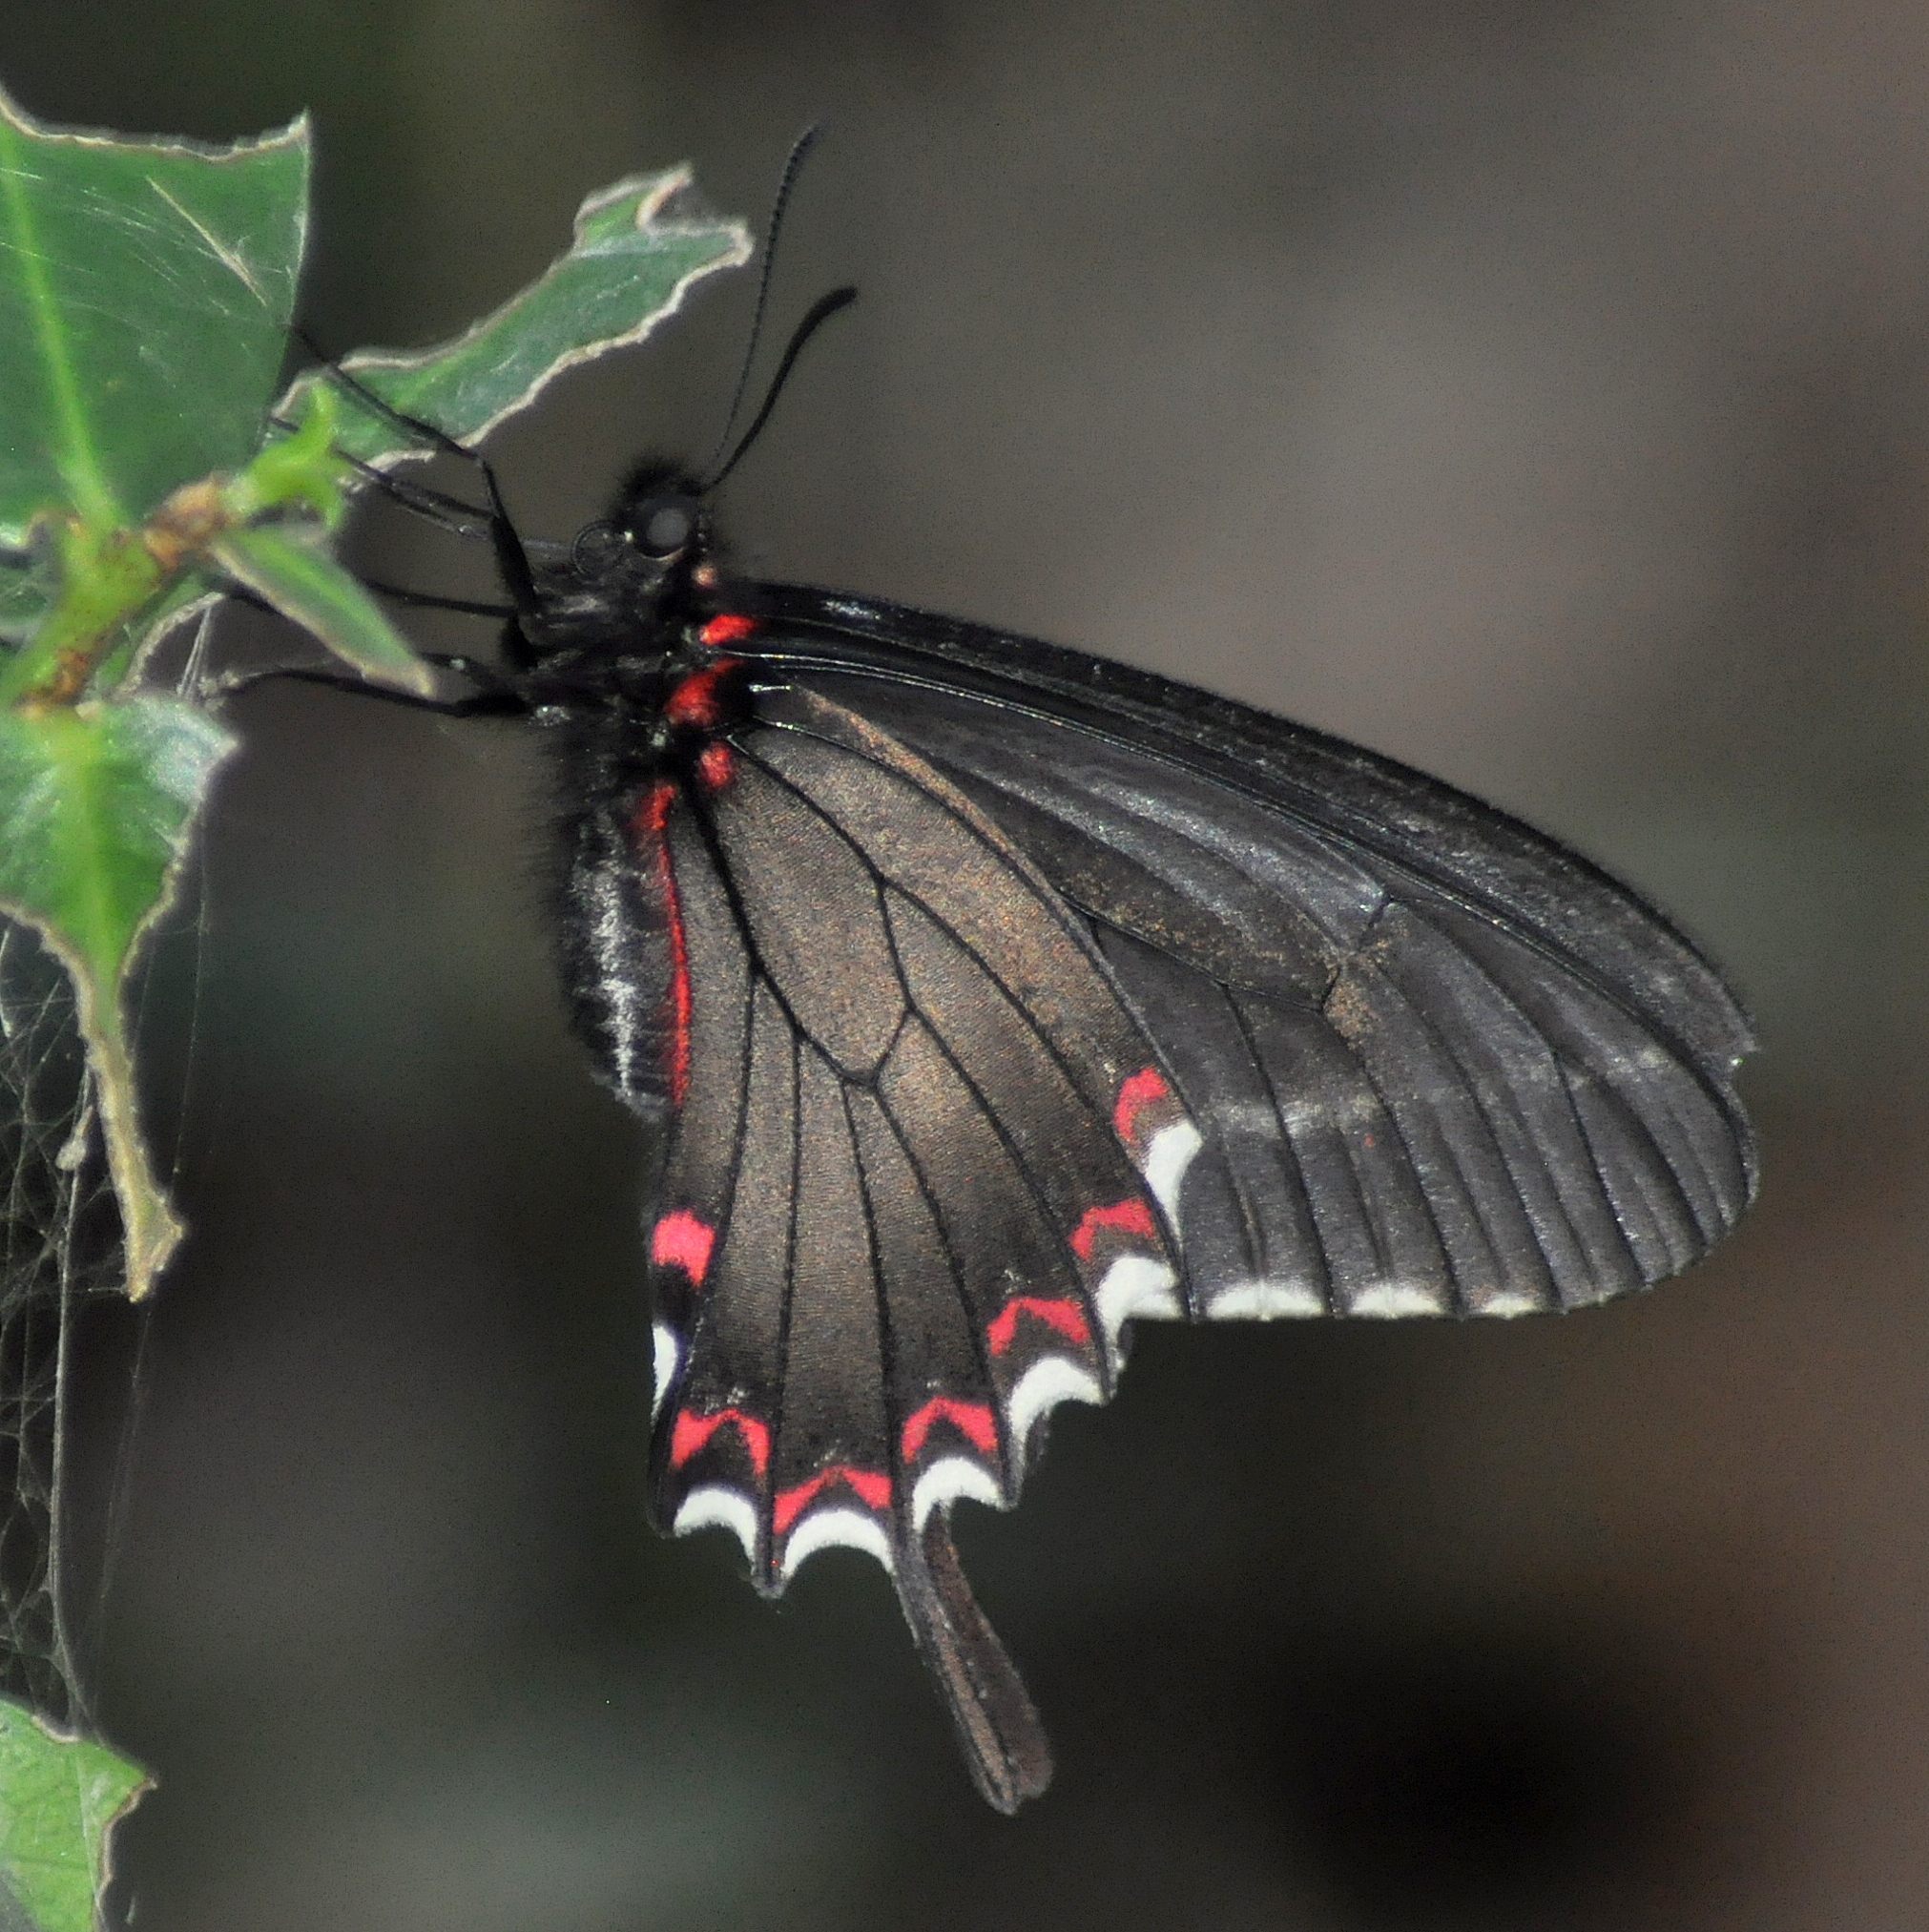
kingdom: Animalia
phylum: Arthropoda
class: Insecta
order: Lepidoptera
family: Papilionidae
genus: Mimoides
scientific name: Mimoides lysithous
